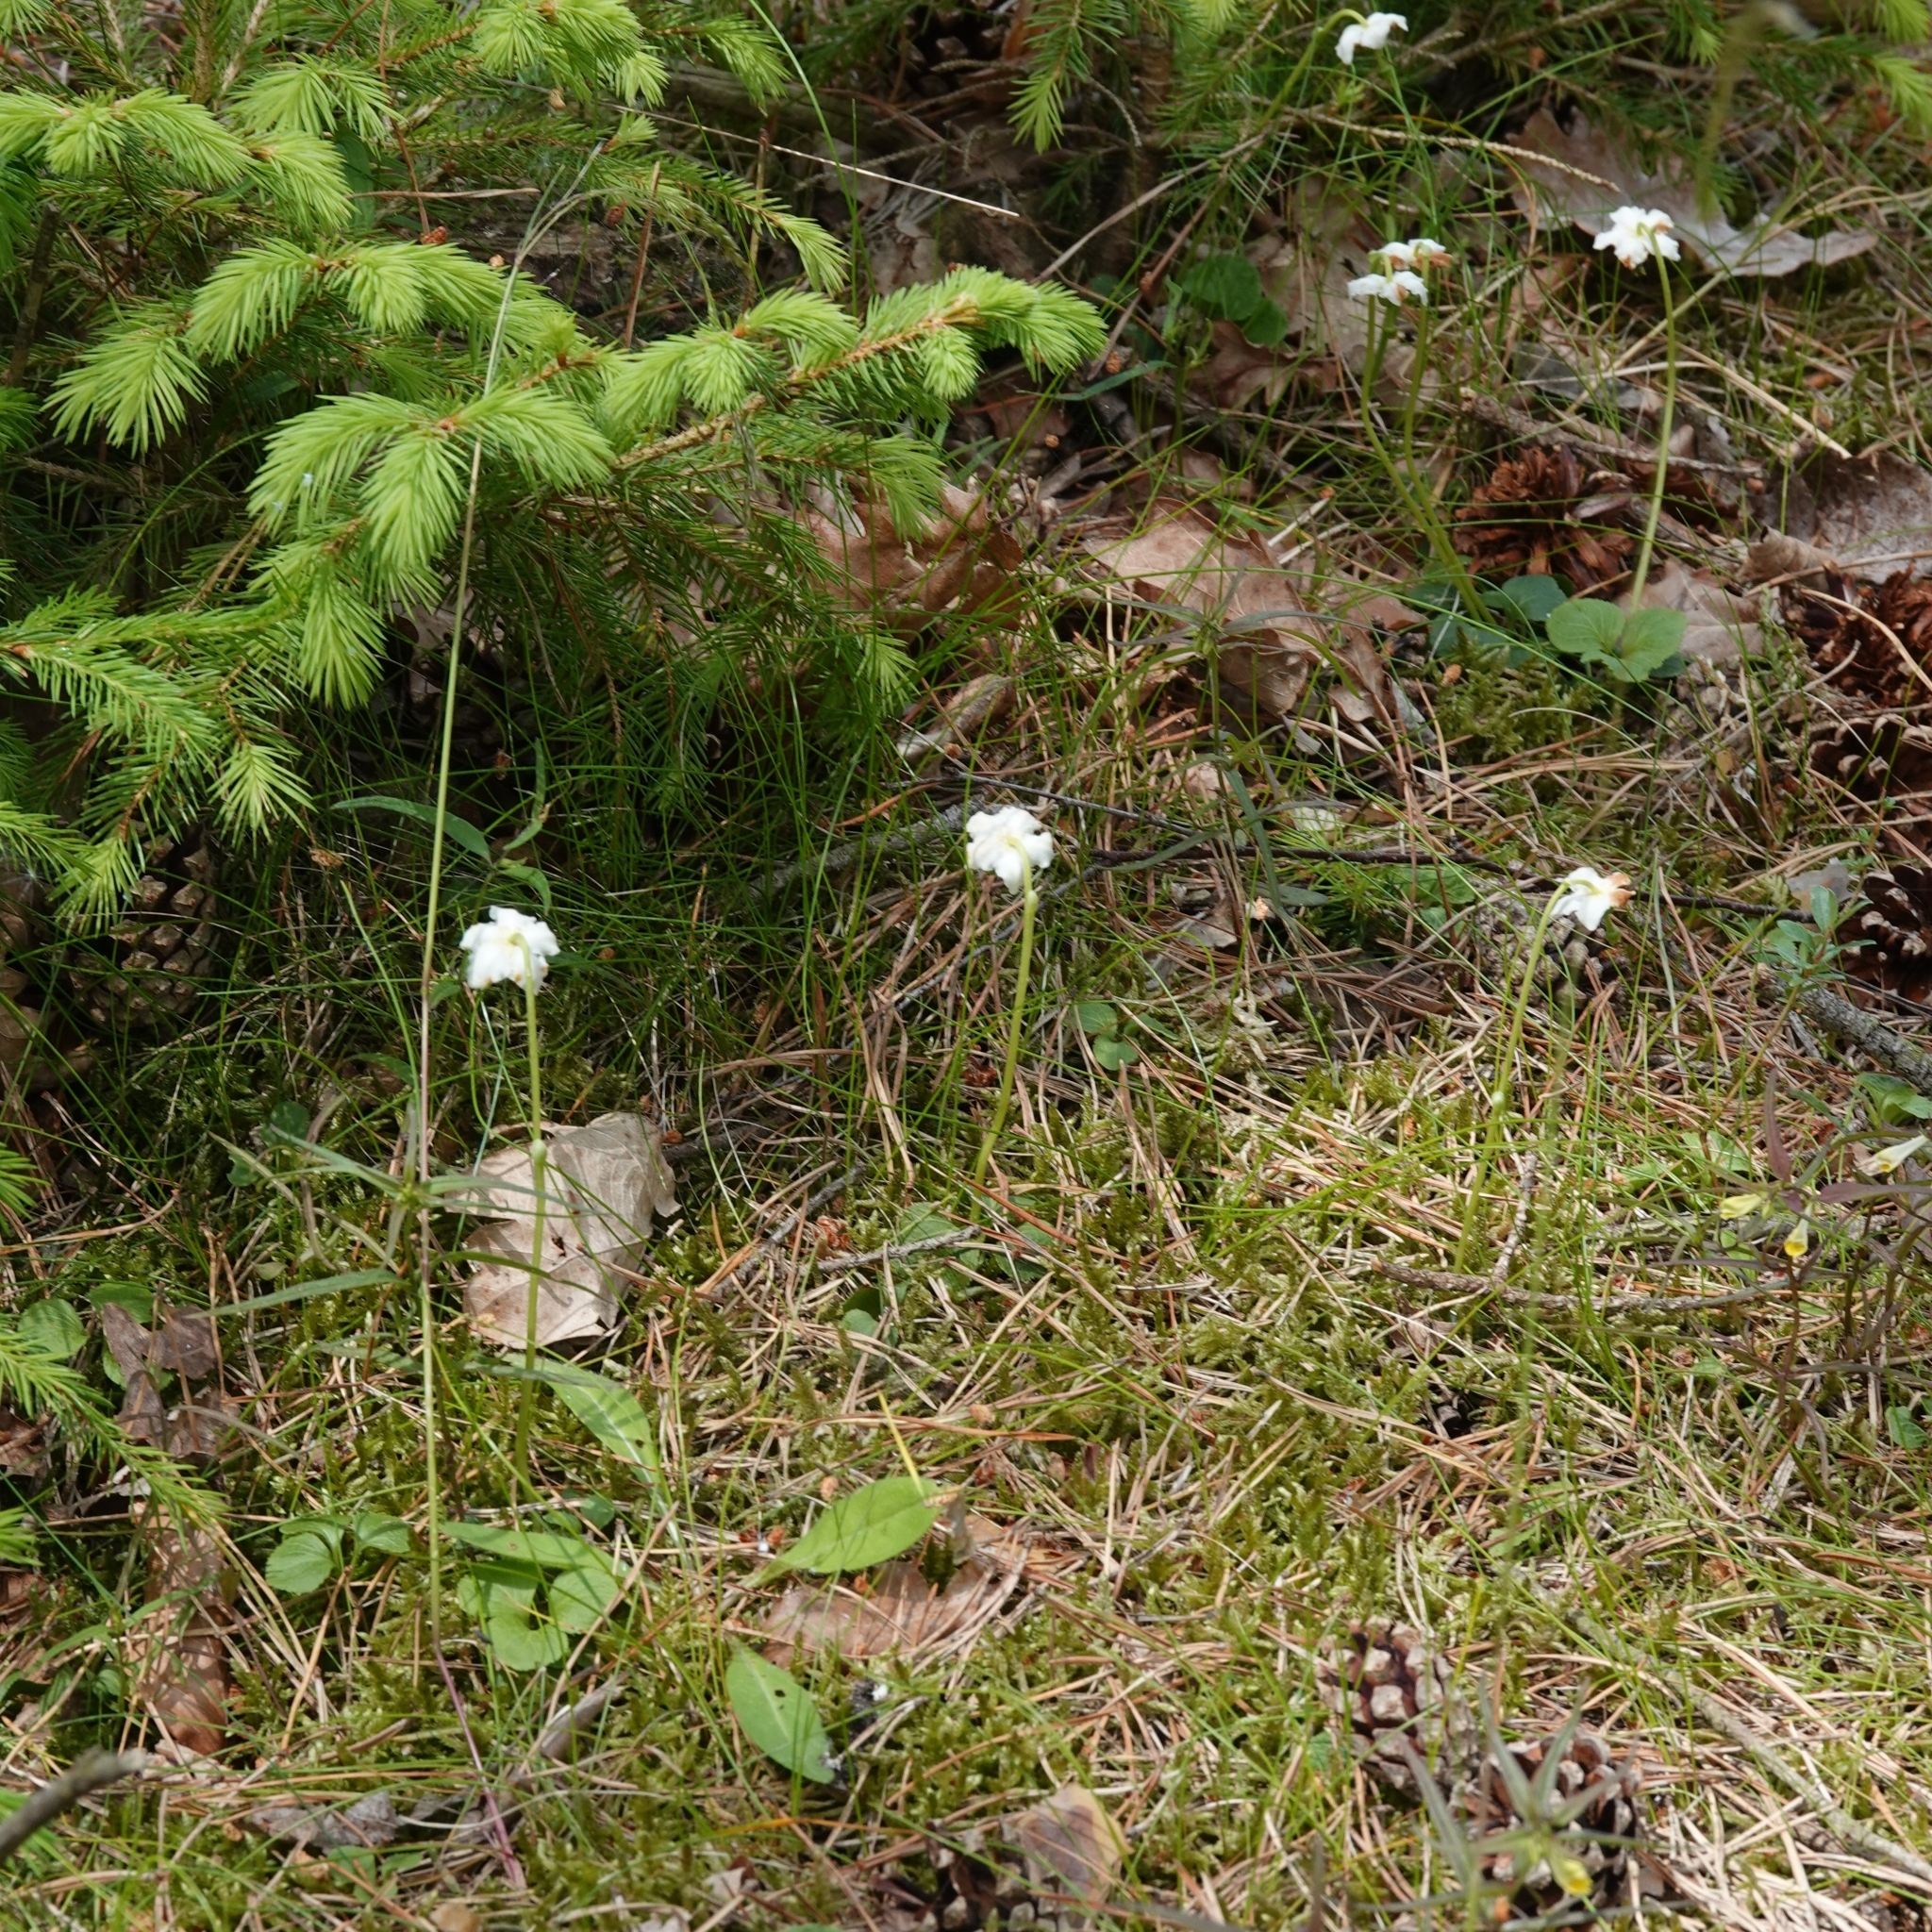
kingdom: Plantae
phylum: Tracheophyta
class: Magnoliopsida
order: Ericales
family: Ericaceae
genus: Moneses
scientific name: Moneses uniflora
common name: One-flowered wintergreen
